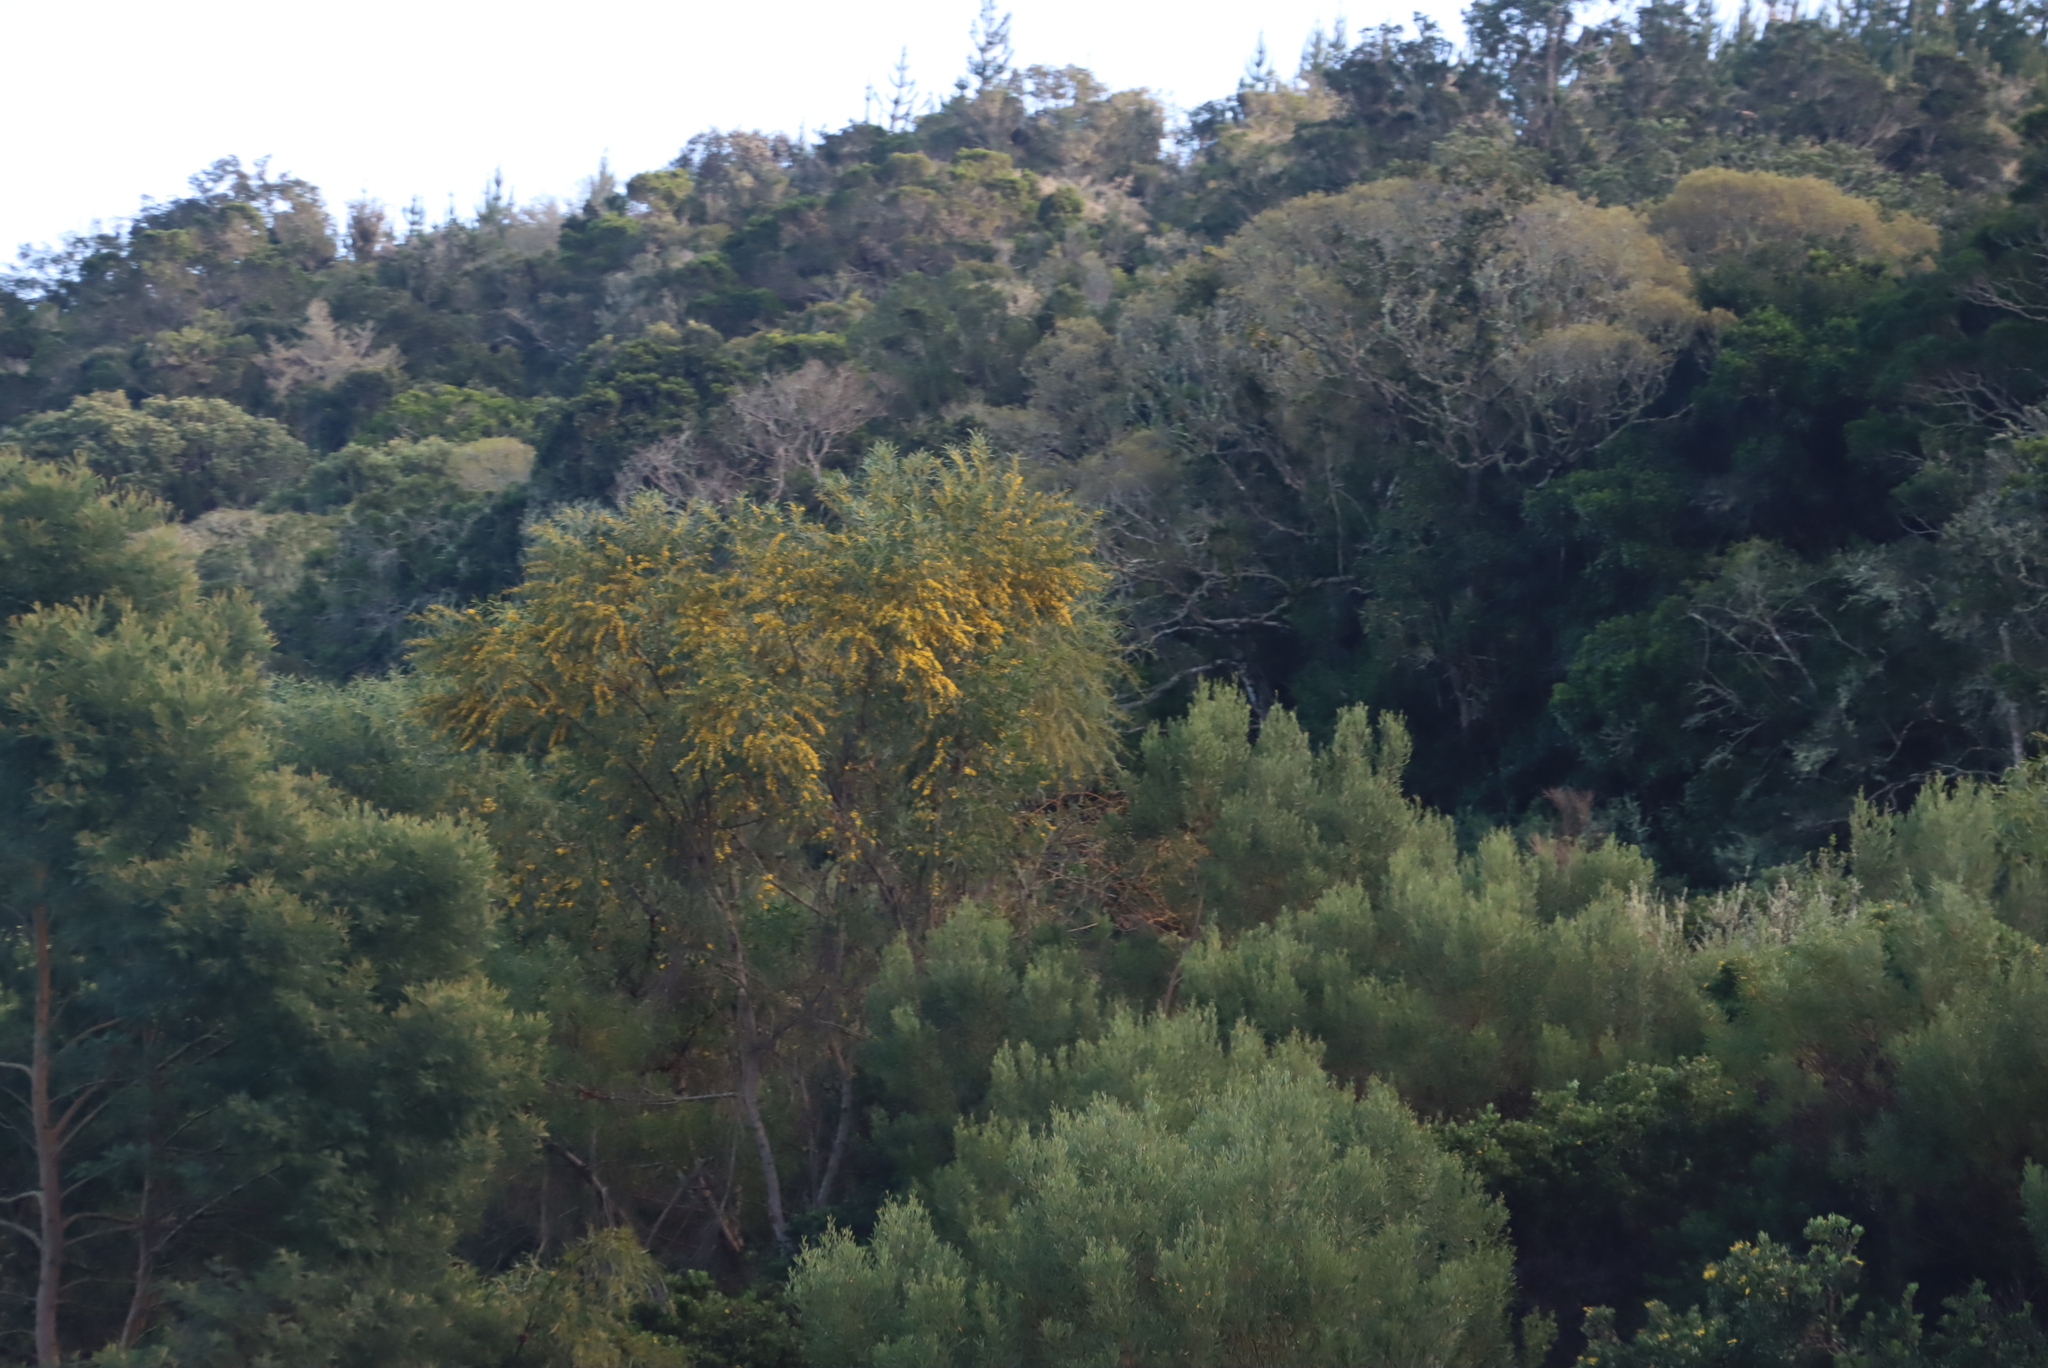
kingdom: Plantae
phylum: Tracheophyta
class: Magnoliopsida
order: Fabales
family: Fabaceae
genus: Acacia
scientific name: Acacia cyclops
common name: Coastal wattle
